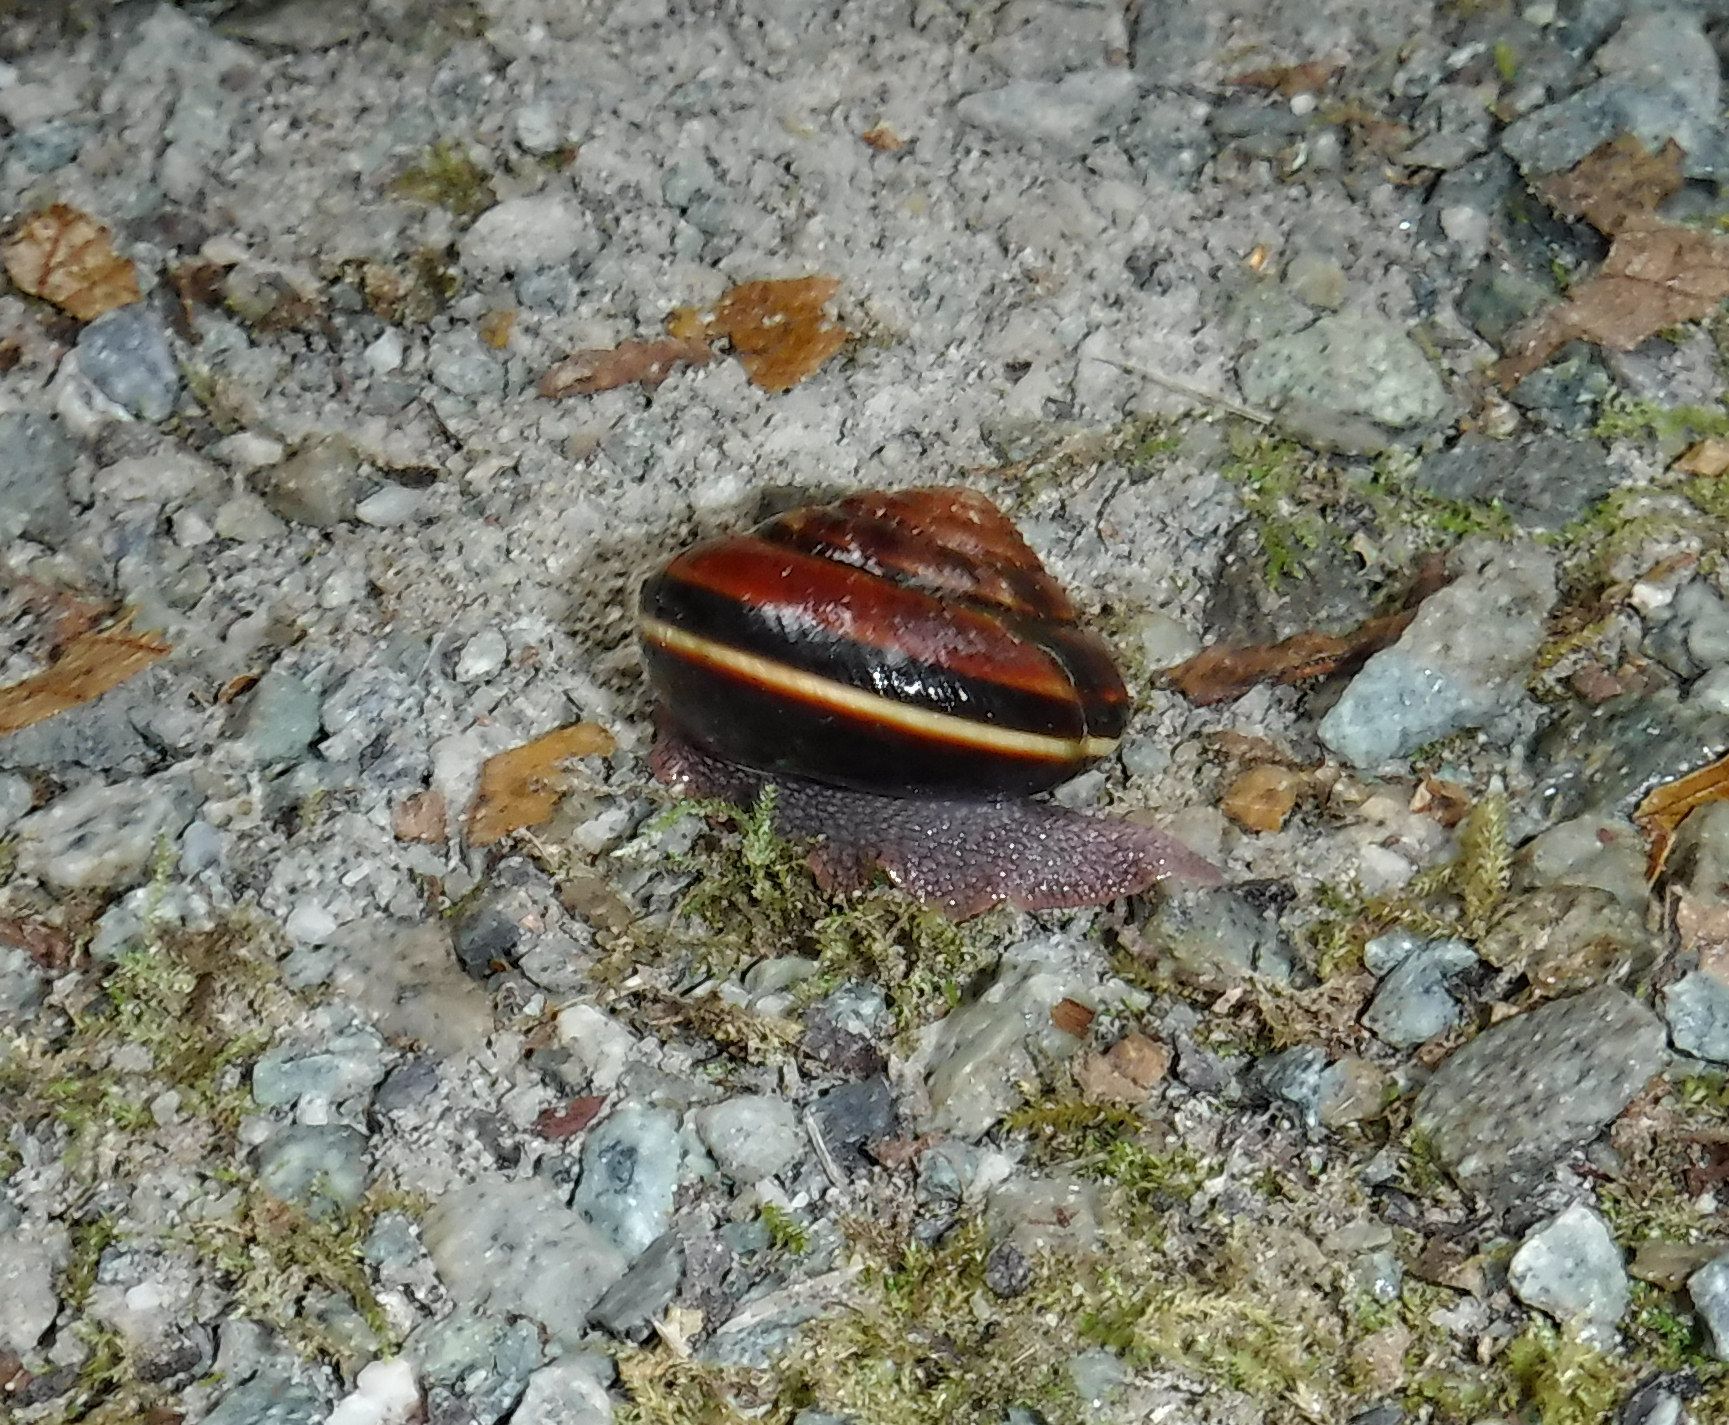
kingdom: Animalia
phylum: Mollusca
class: Gastropoda
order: Stylommatophora
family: Xanthonychidae
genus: Monadenia
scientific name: Monadenia fidelis
